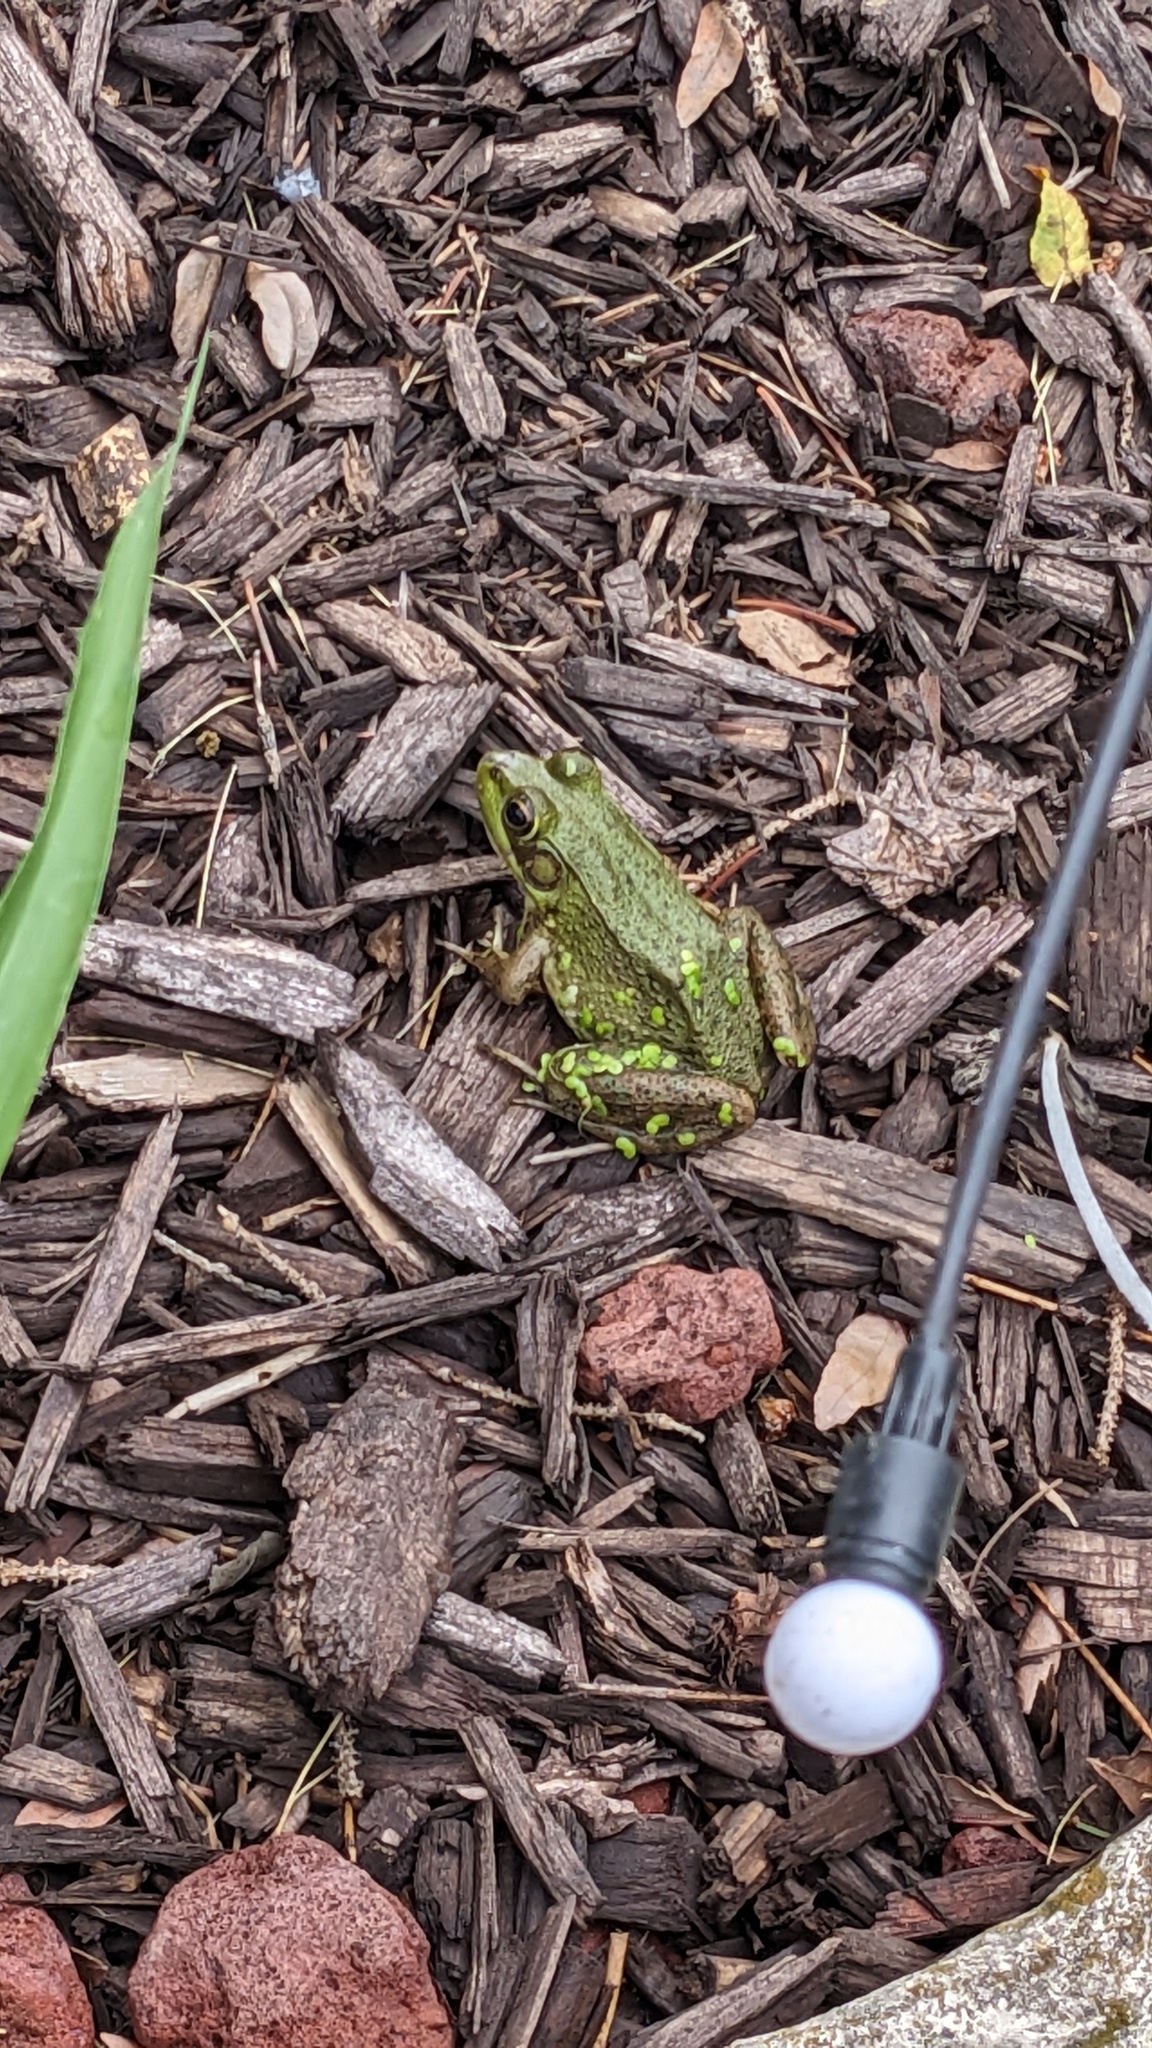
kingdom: Animalia
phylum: Chordata
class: Amphibia
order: Anura
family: Ranidae
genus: Lithobates
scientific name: Lithobates clamitans
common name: Green frog
